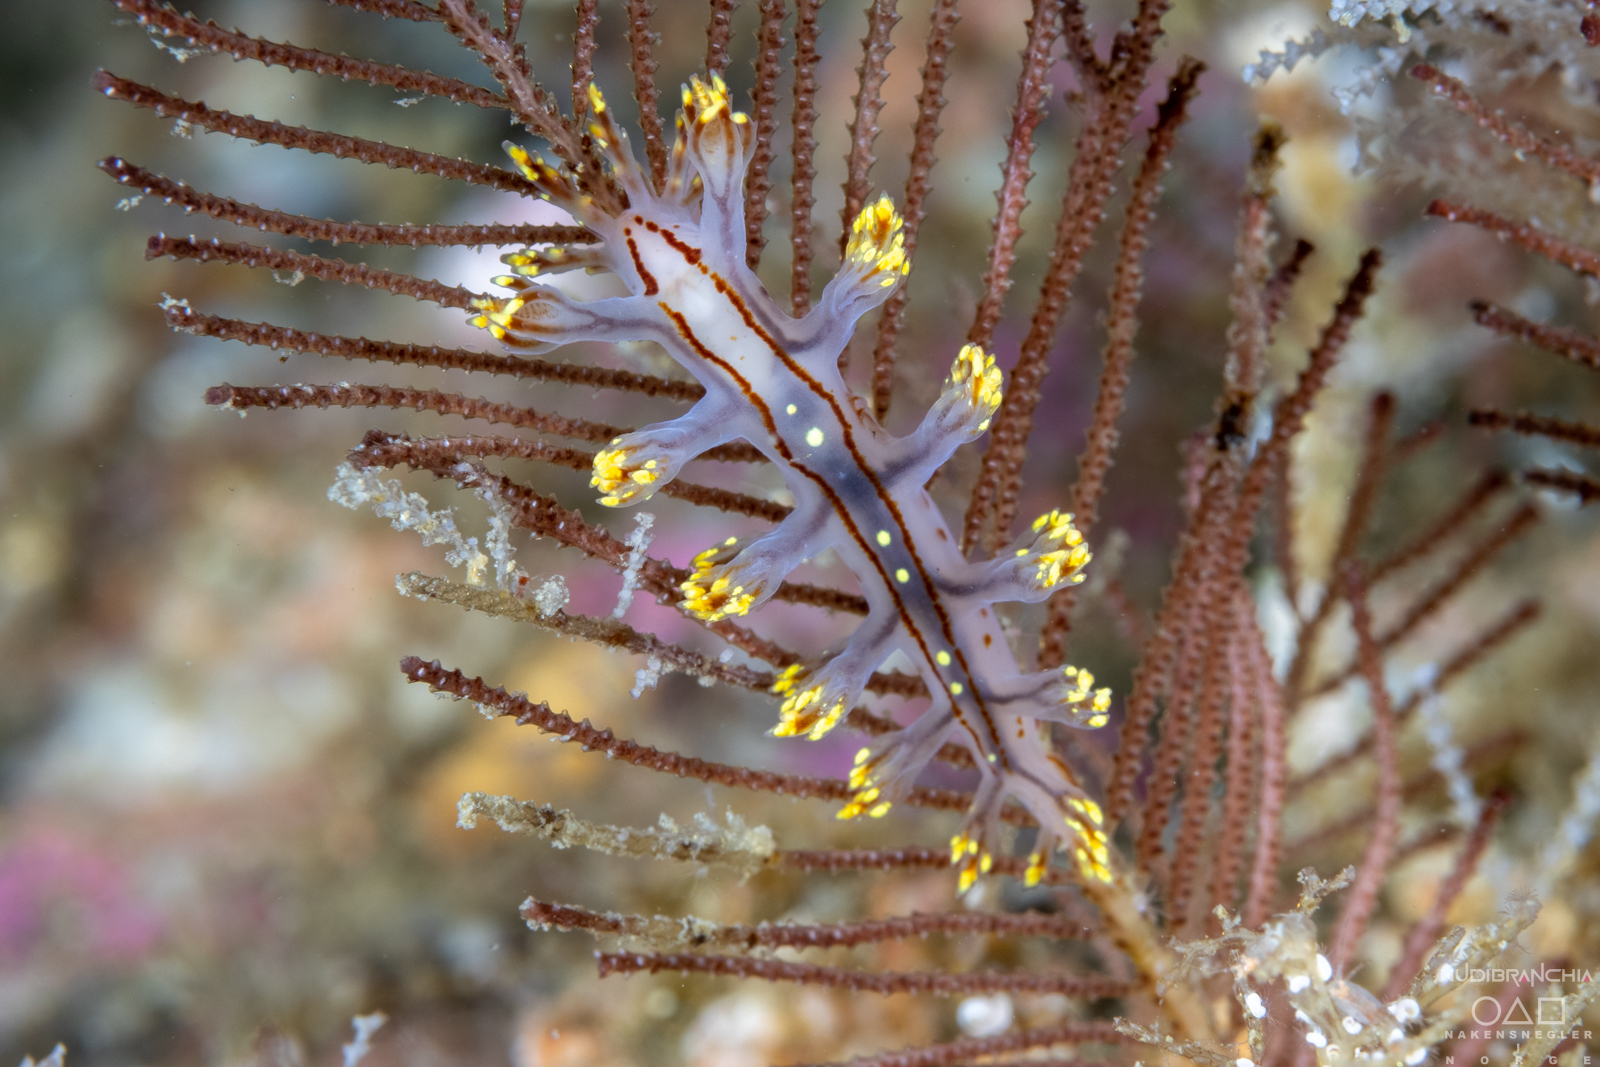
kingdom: Animalia
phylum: Mollusca
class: Gastropoda
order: Nudibranchia
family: Dendronotidae
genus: Dendronotus
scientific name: Dendronotus yrjargul
